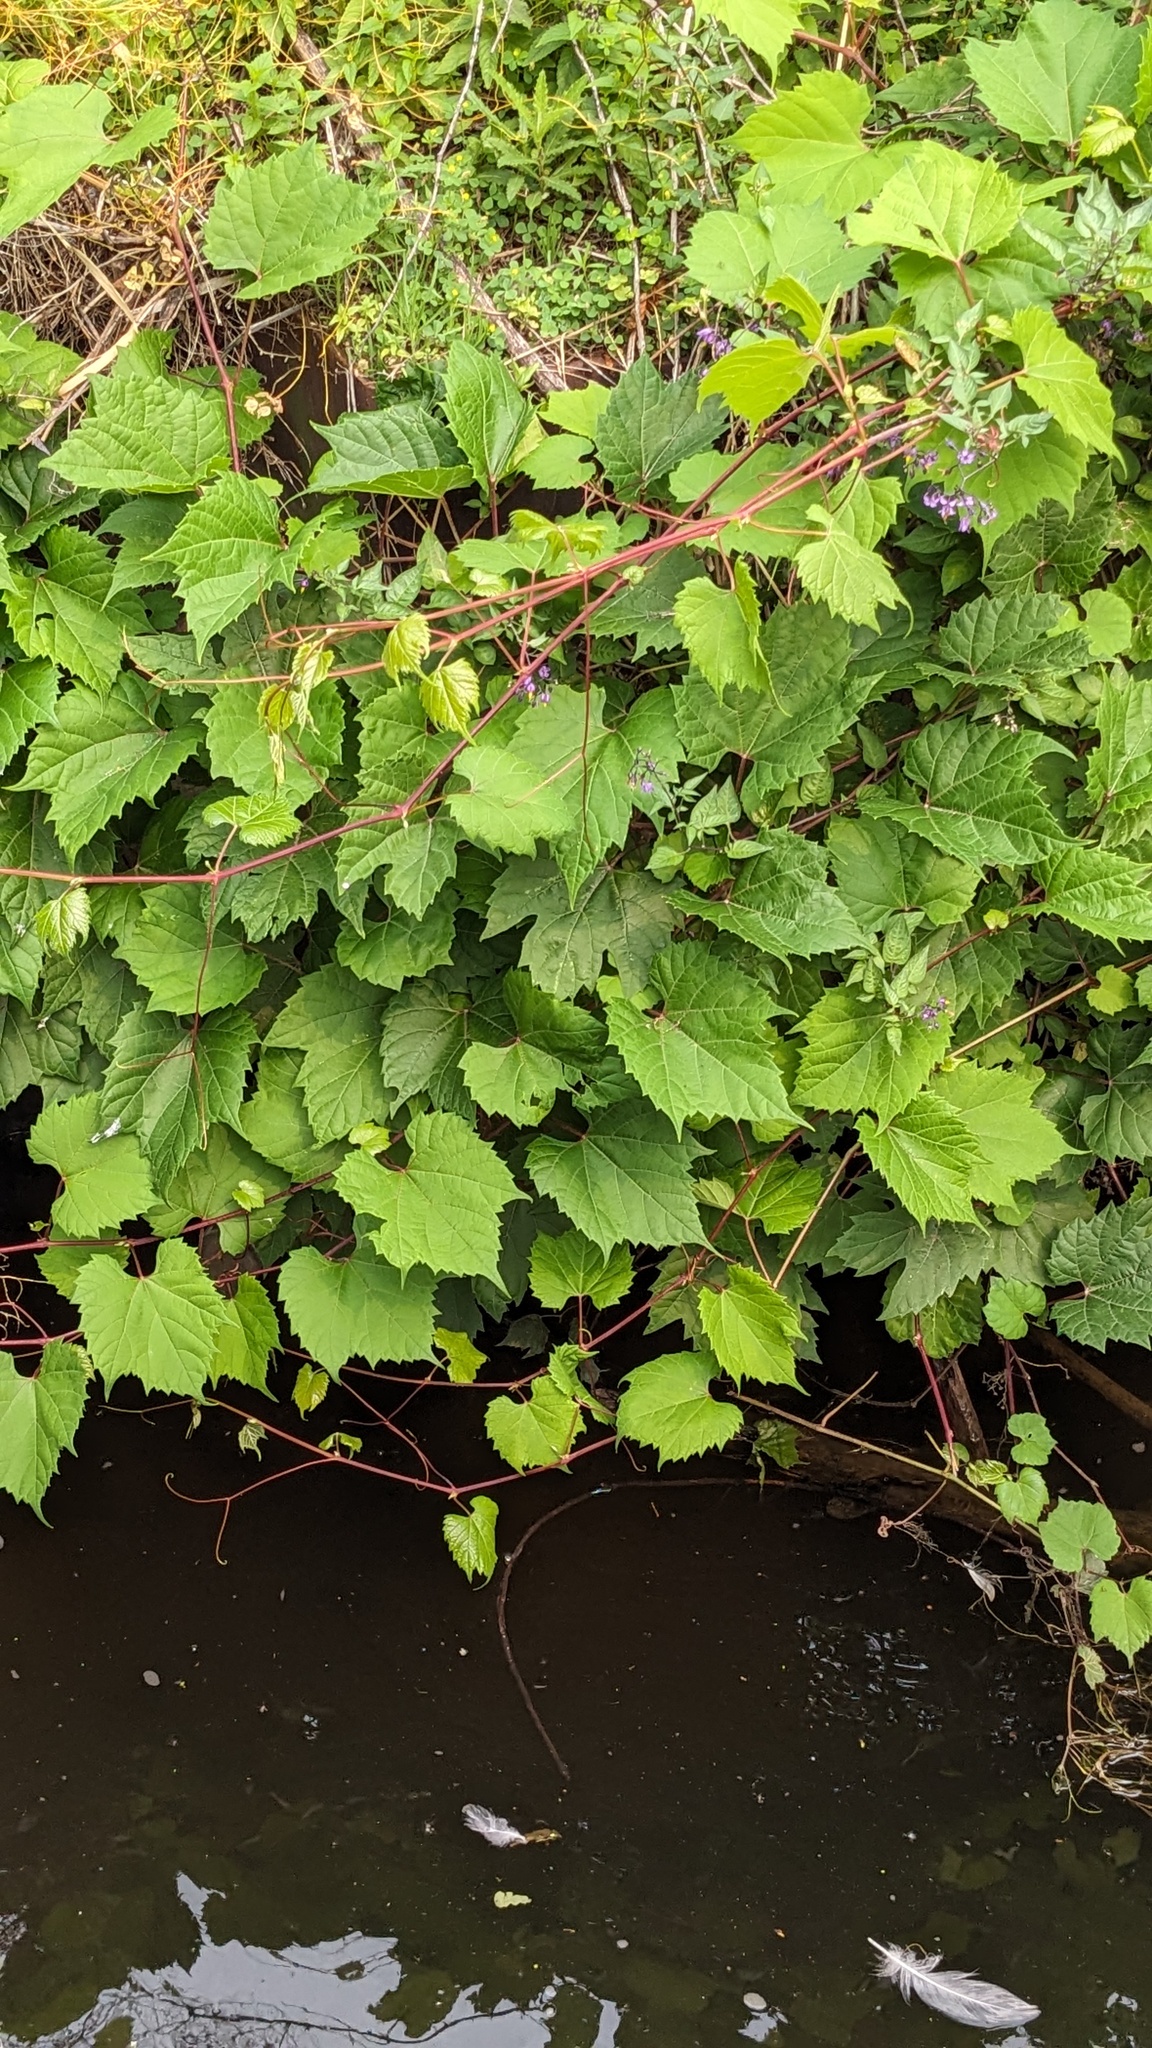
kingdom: Plantae
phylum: Tracheophyta
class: Magnoliopsida
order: Vitales
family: Vitaceae
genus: Vitis
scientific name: Vitis riparia
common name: Frost grape
